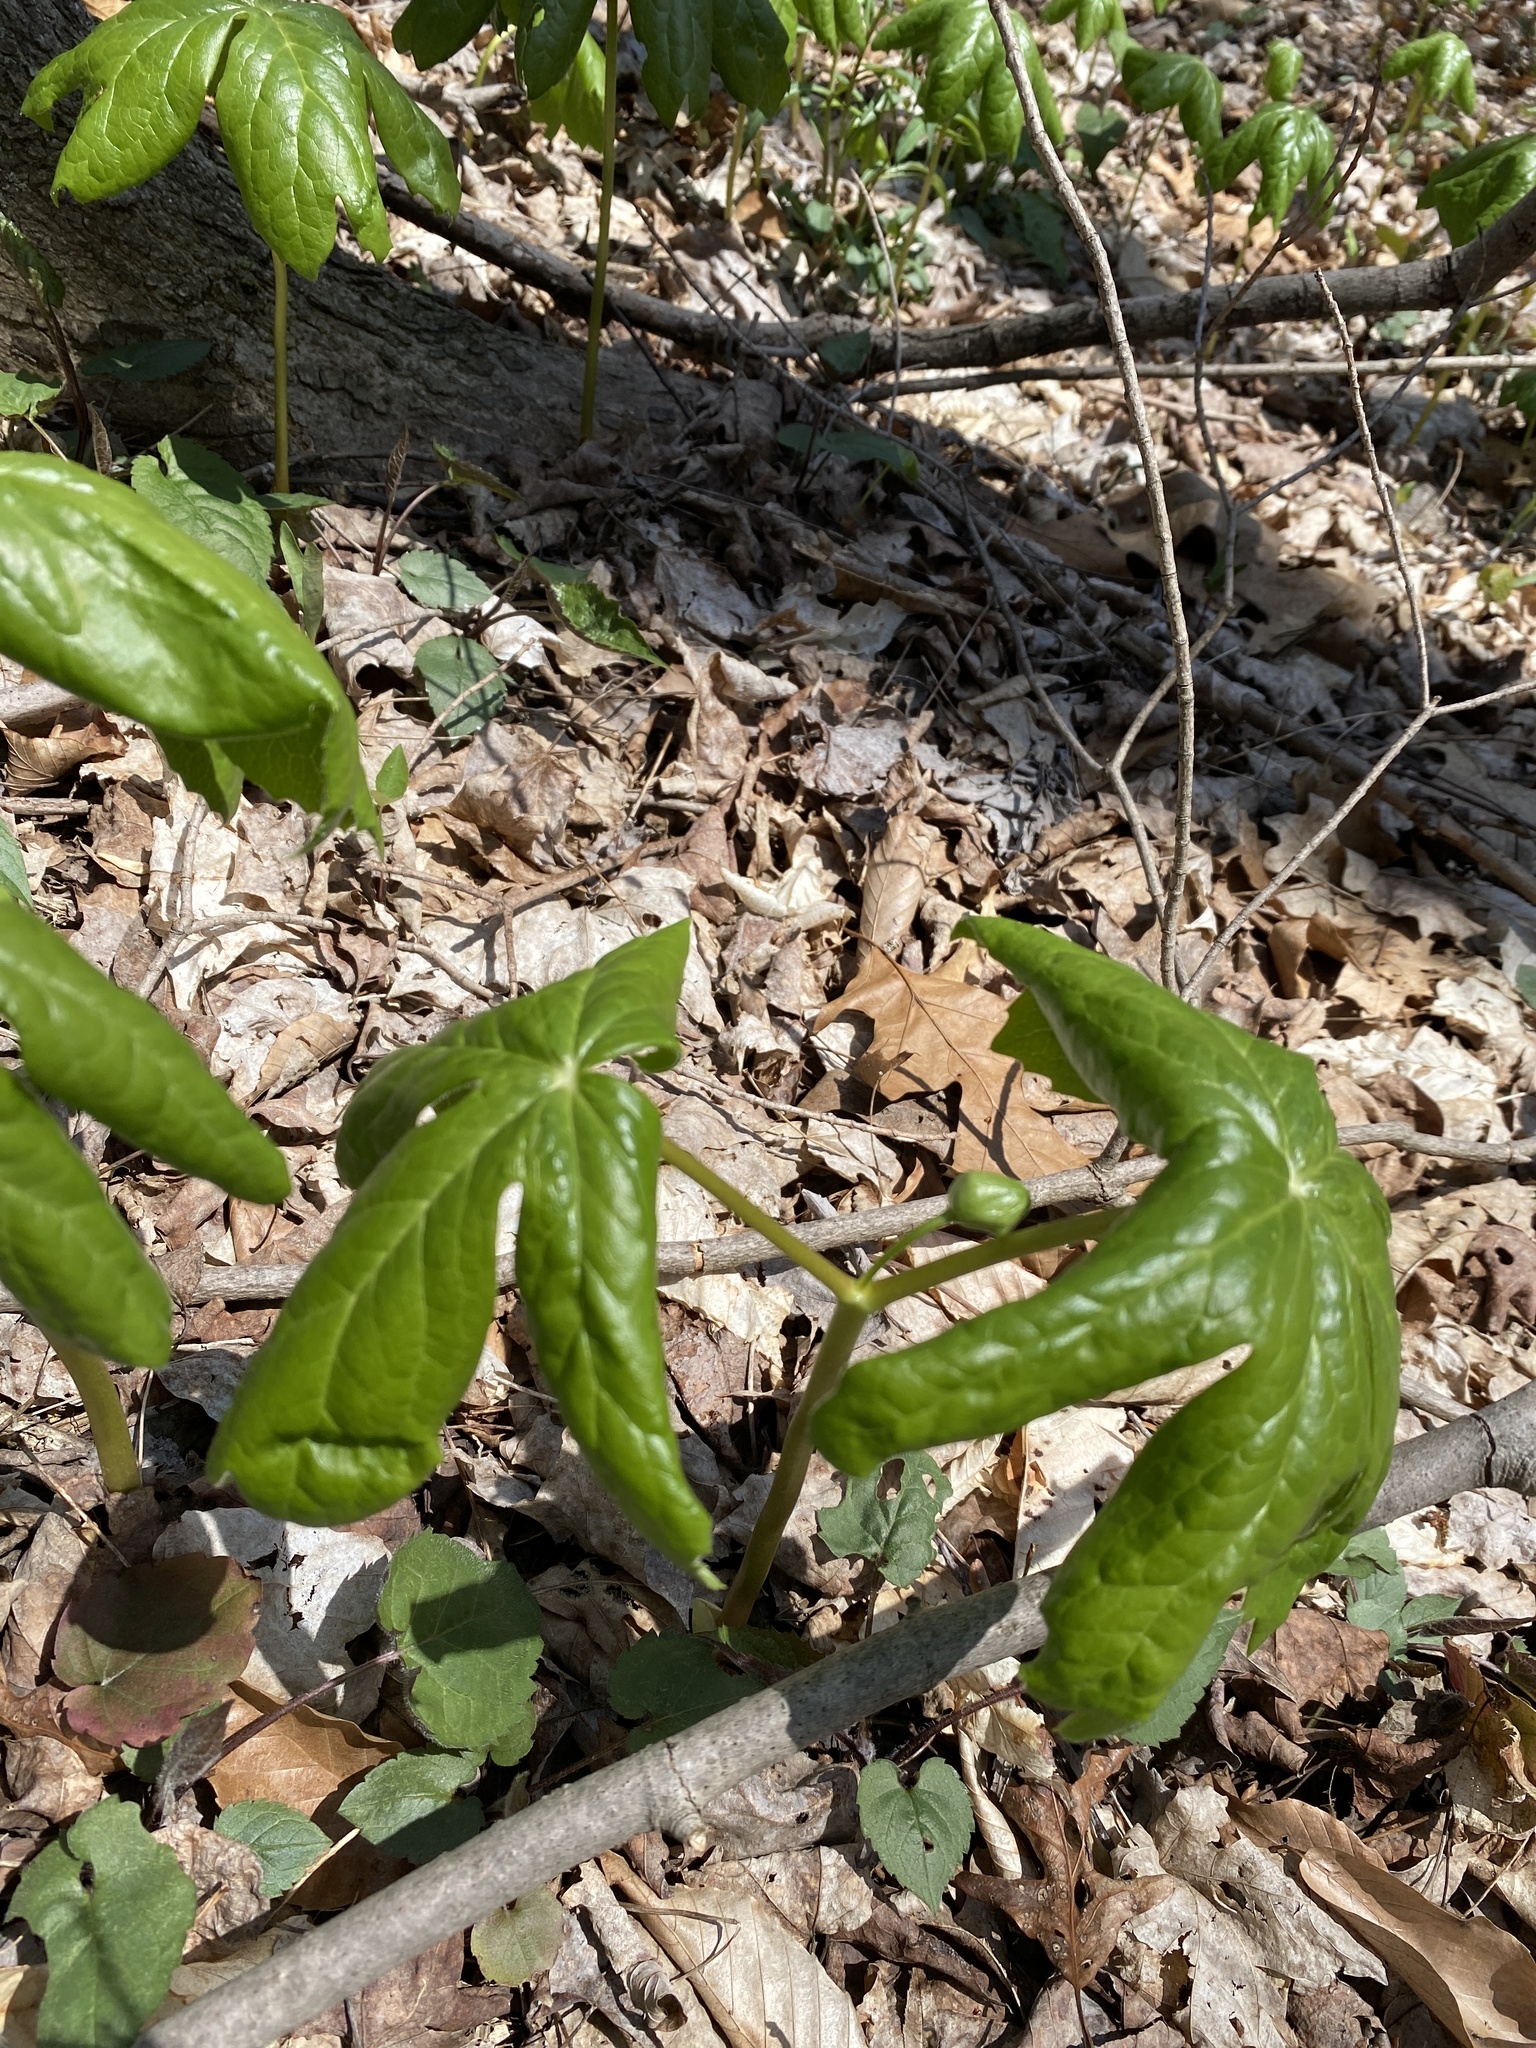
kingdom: Plantae
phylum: Tracheophyta
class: Magnoliopsida
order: Ranunculales
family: Berberidaceae
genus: Podophyllum
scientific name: Podophyllum peltatum
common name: Wild mandrake
